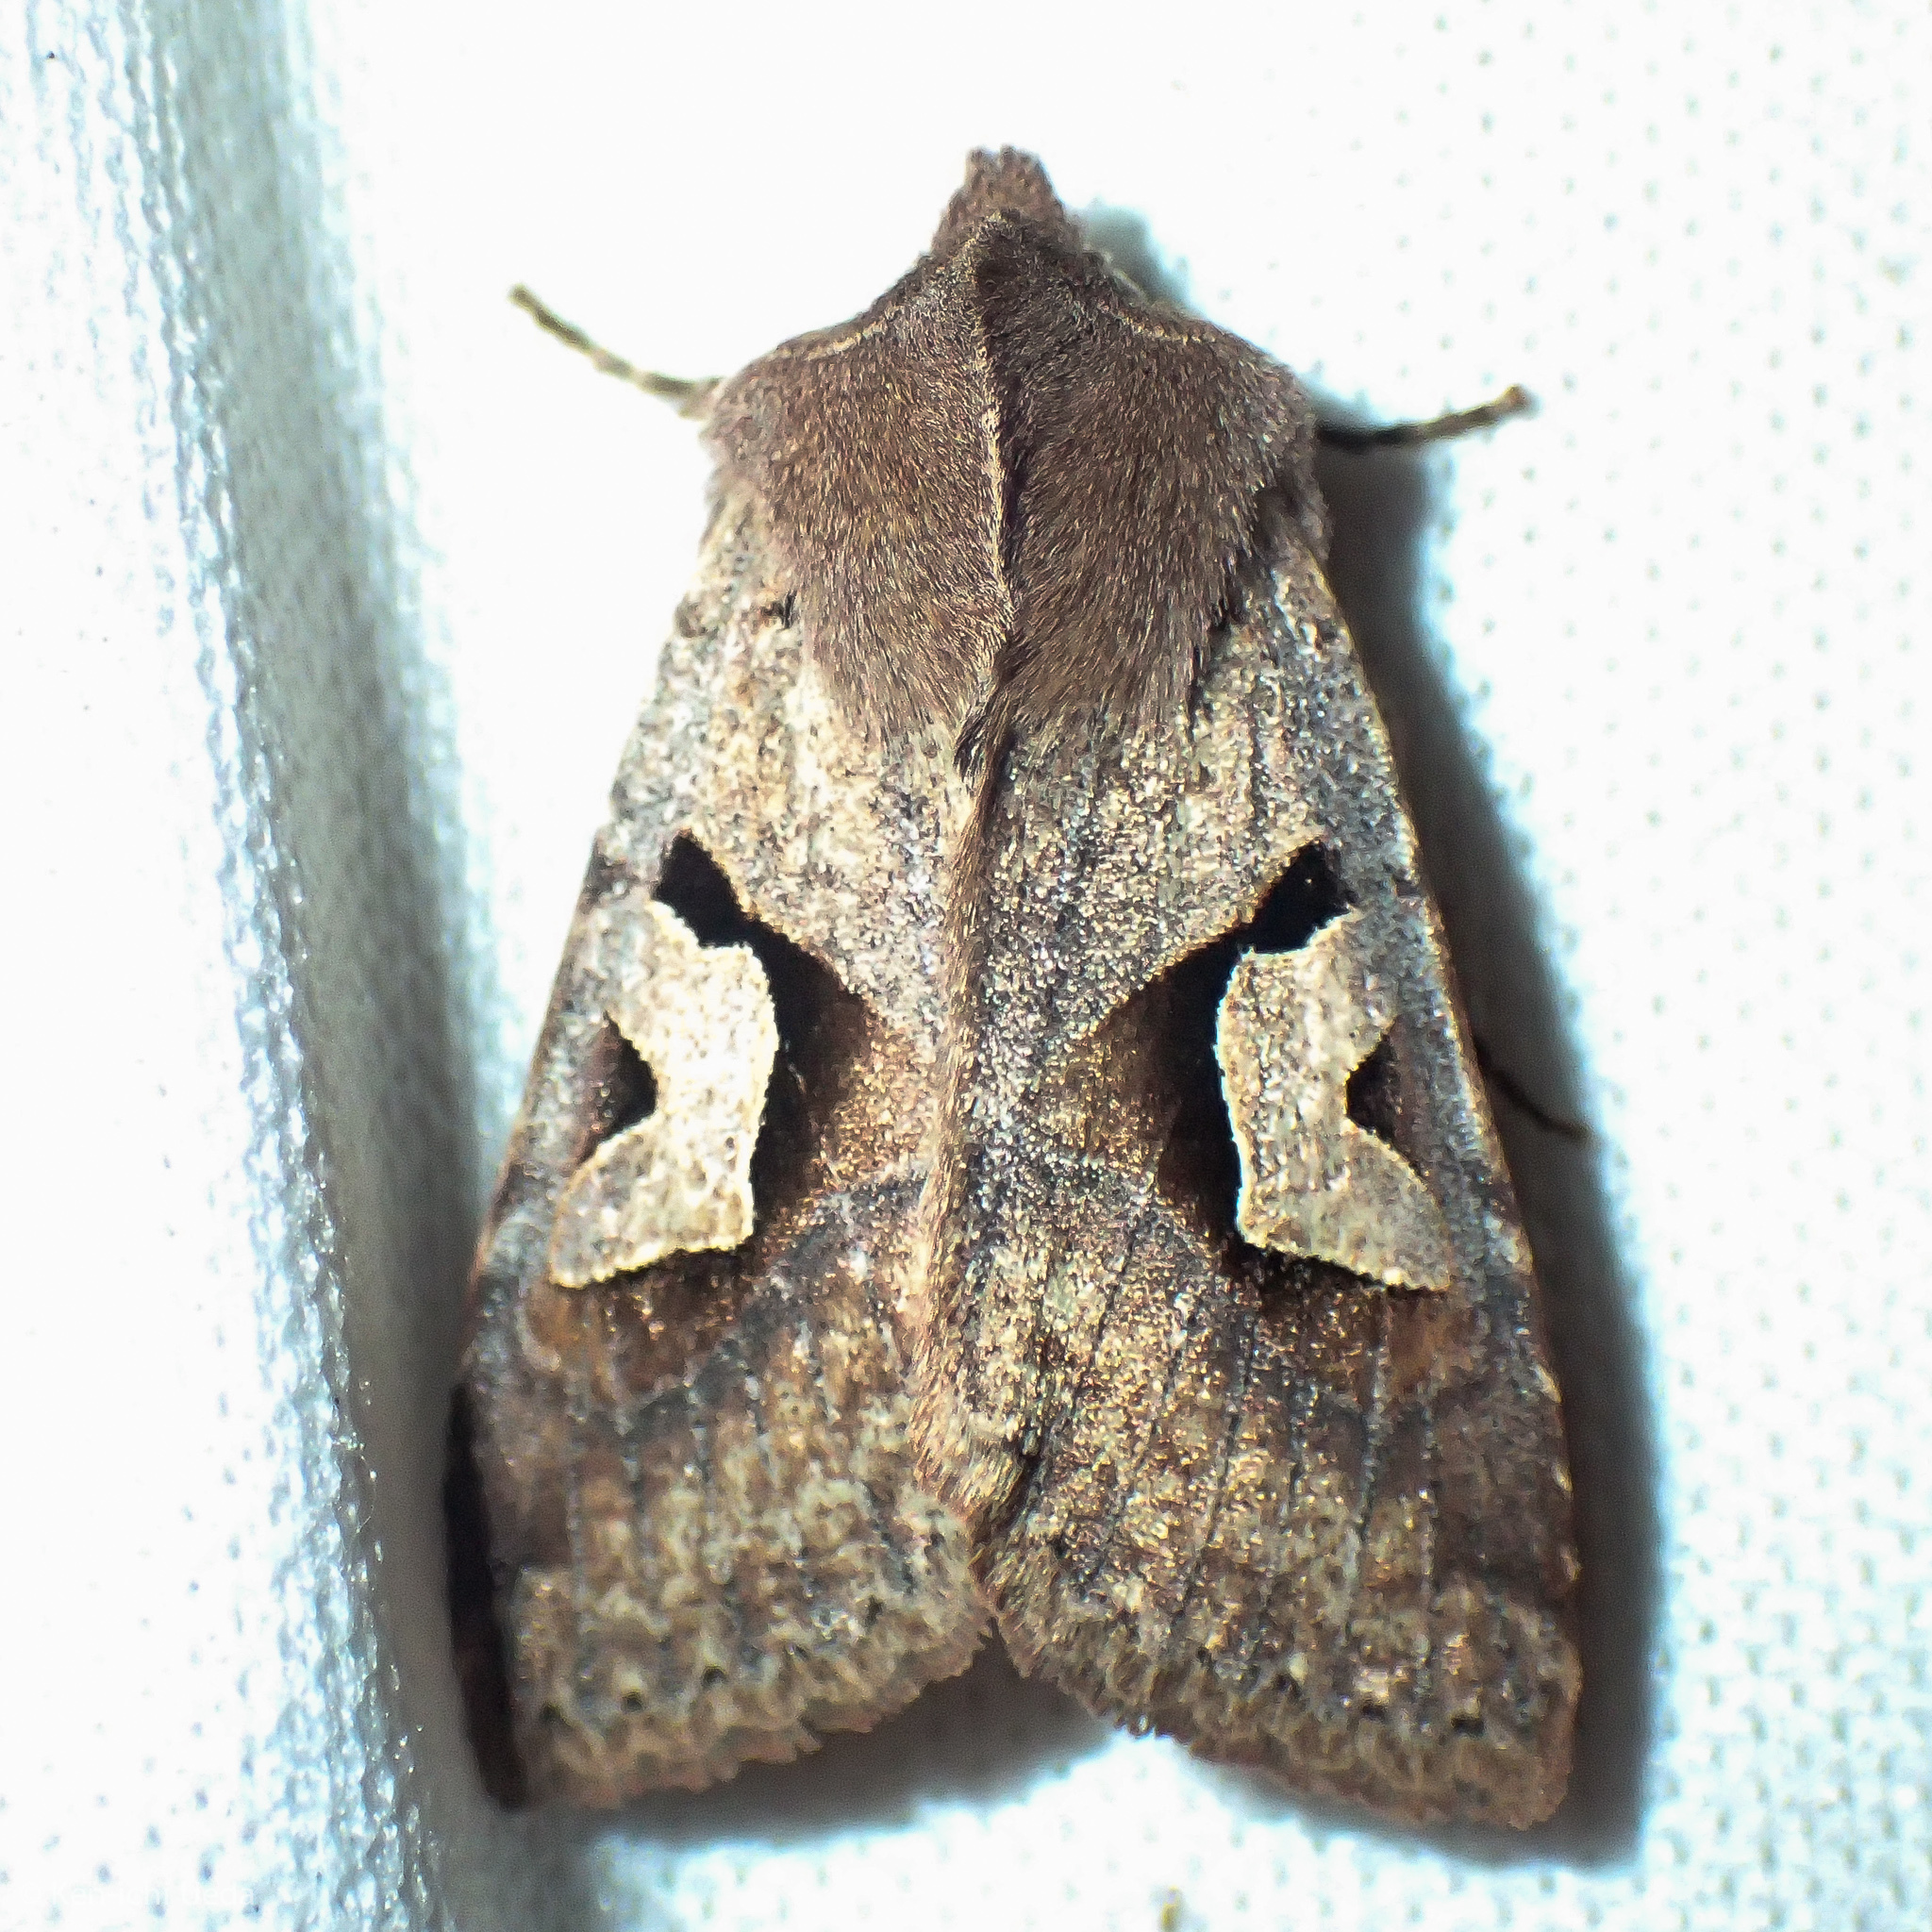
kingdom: Animalia
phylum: Arthropoda
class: Insecta
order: Lepidoptera
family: Noctuidae
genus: Acerra
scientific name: Acerra normalis
